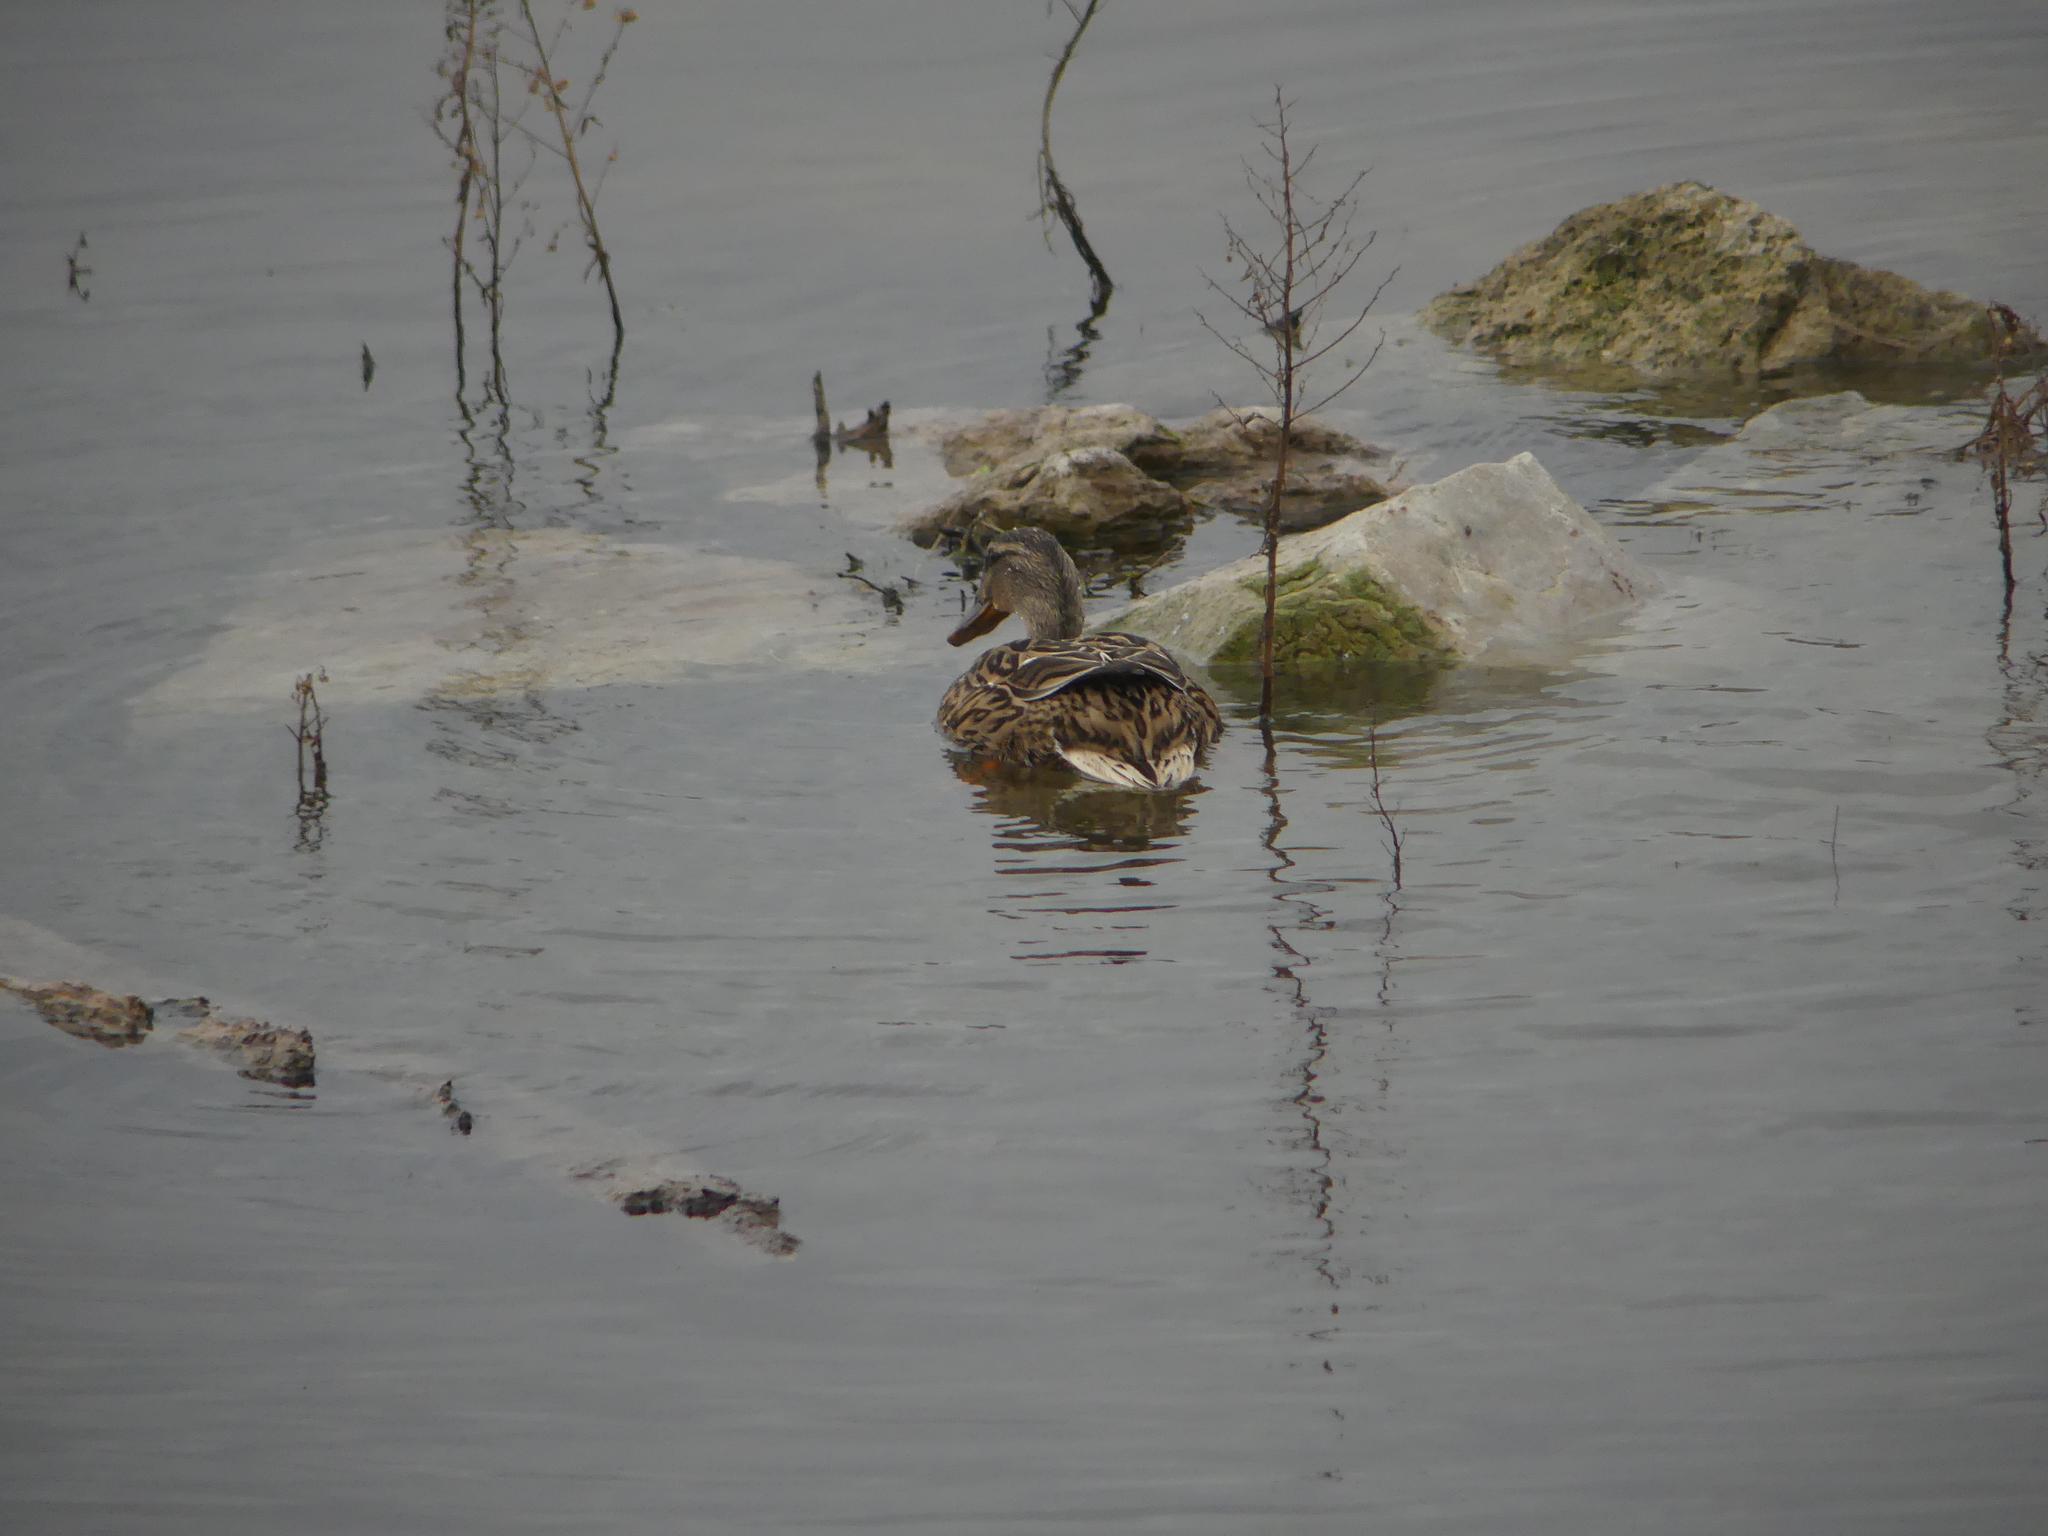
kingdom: Animalia
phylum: Chordata
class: Aves
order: Anseriformes
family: Anatidae
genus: Anas
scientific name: Anas platyrhynchos
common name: Mallard
